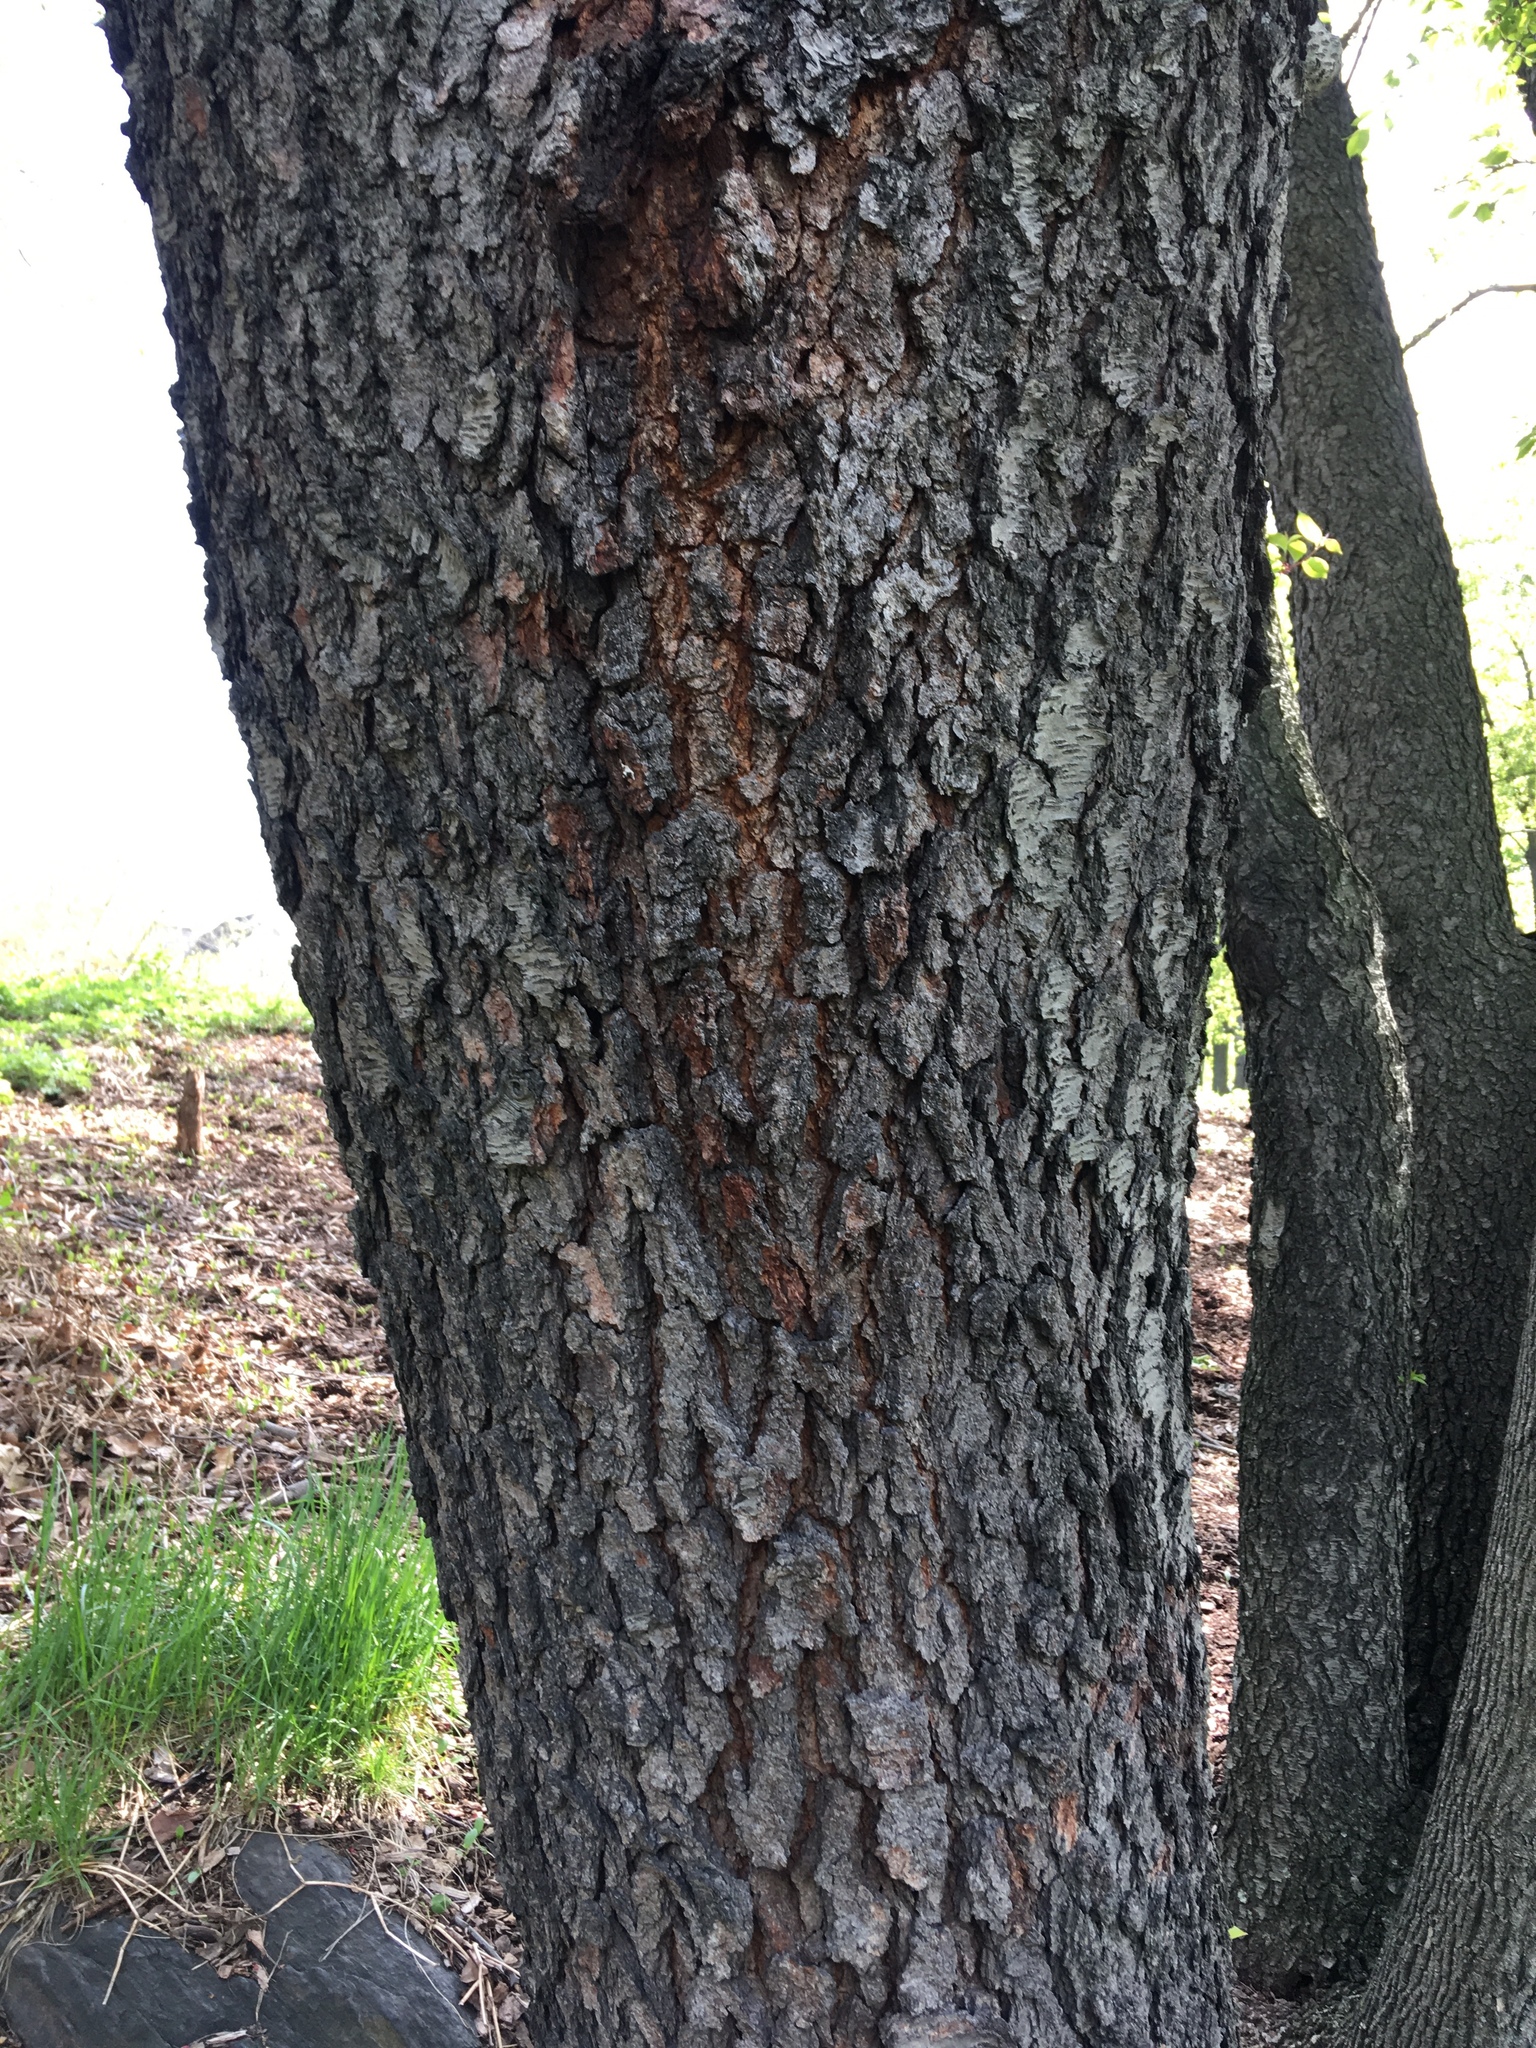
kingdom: Plantae
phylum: Tracheophyta
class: Magnoliopsida
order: Rosales
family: Rosaceae
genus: Prunus
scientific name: Prunus serotina
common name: Black cherry
